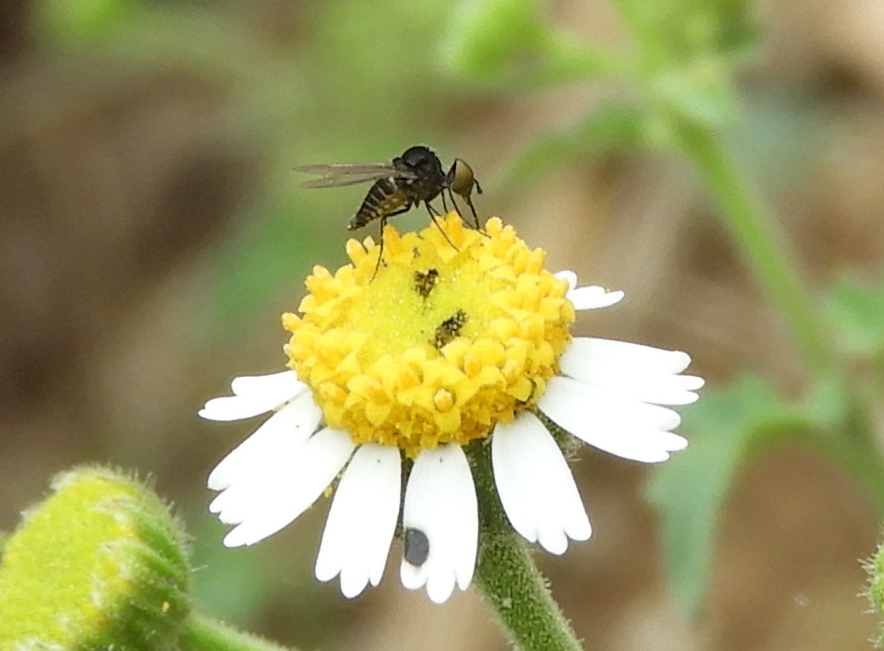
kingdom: Animalia
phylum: Arthropoda
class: Insecta
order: Diptera
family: Bombyliidae
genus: Apolysis
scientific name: Apolysis
